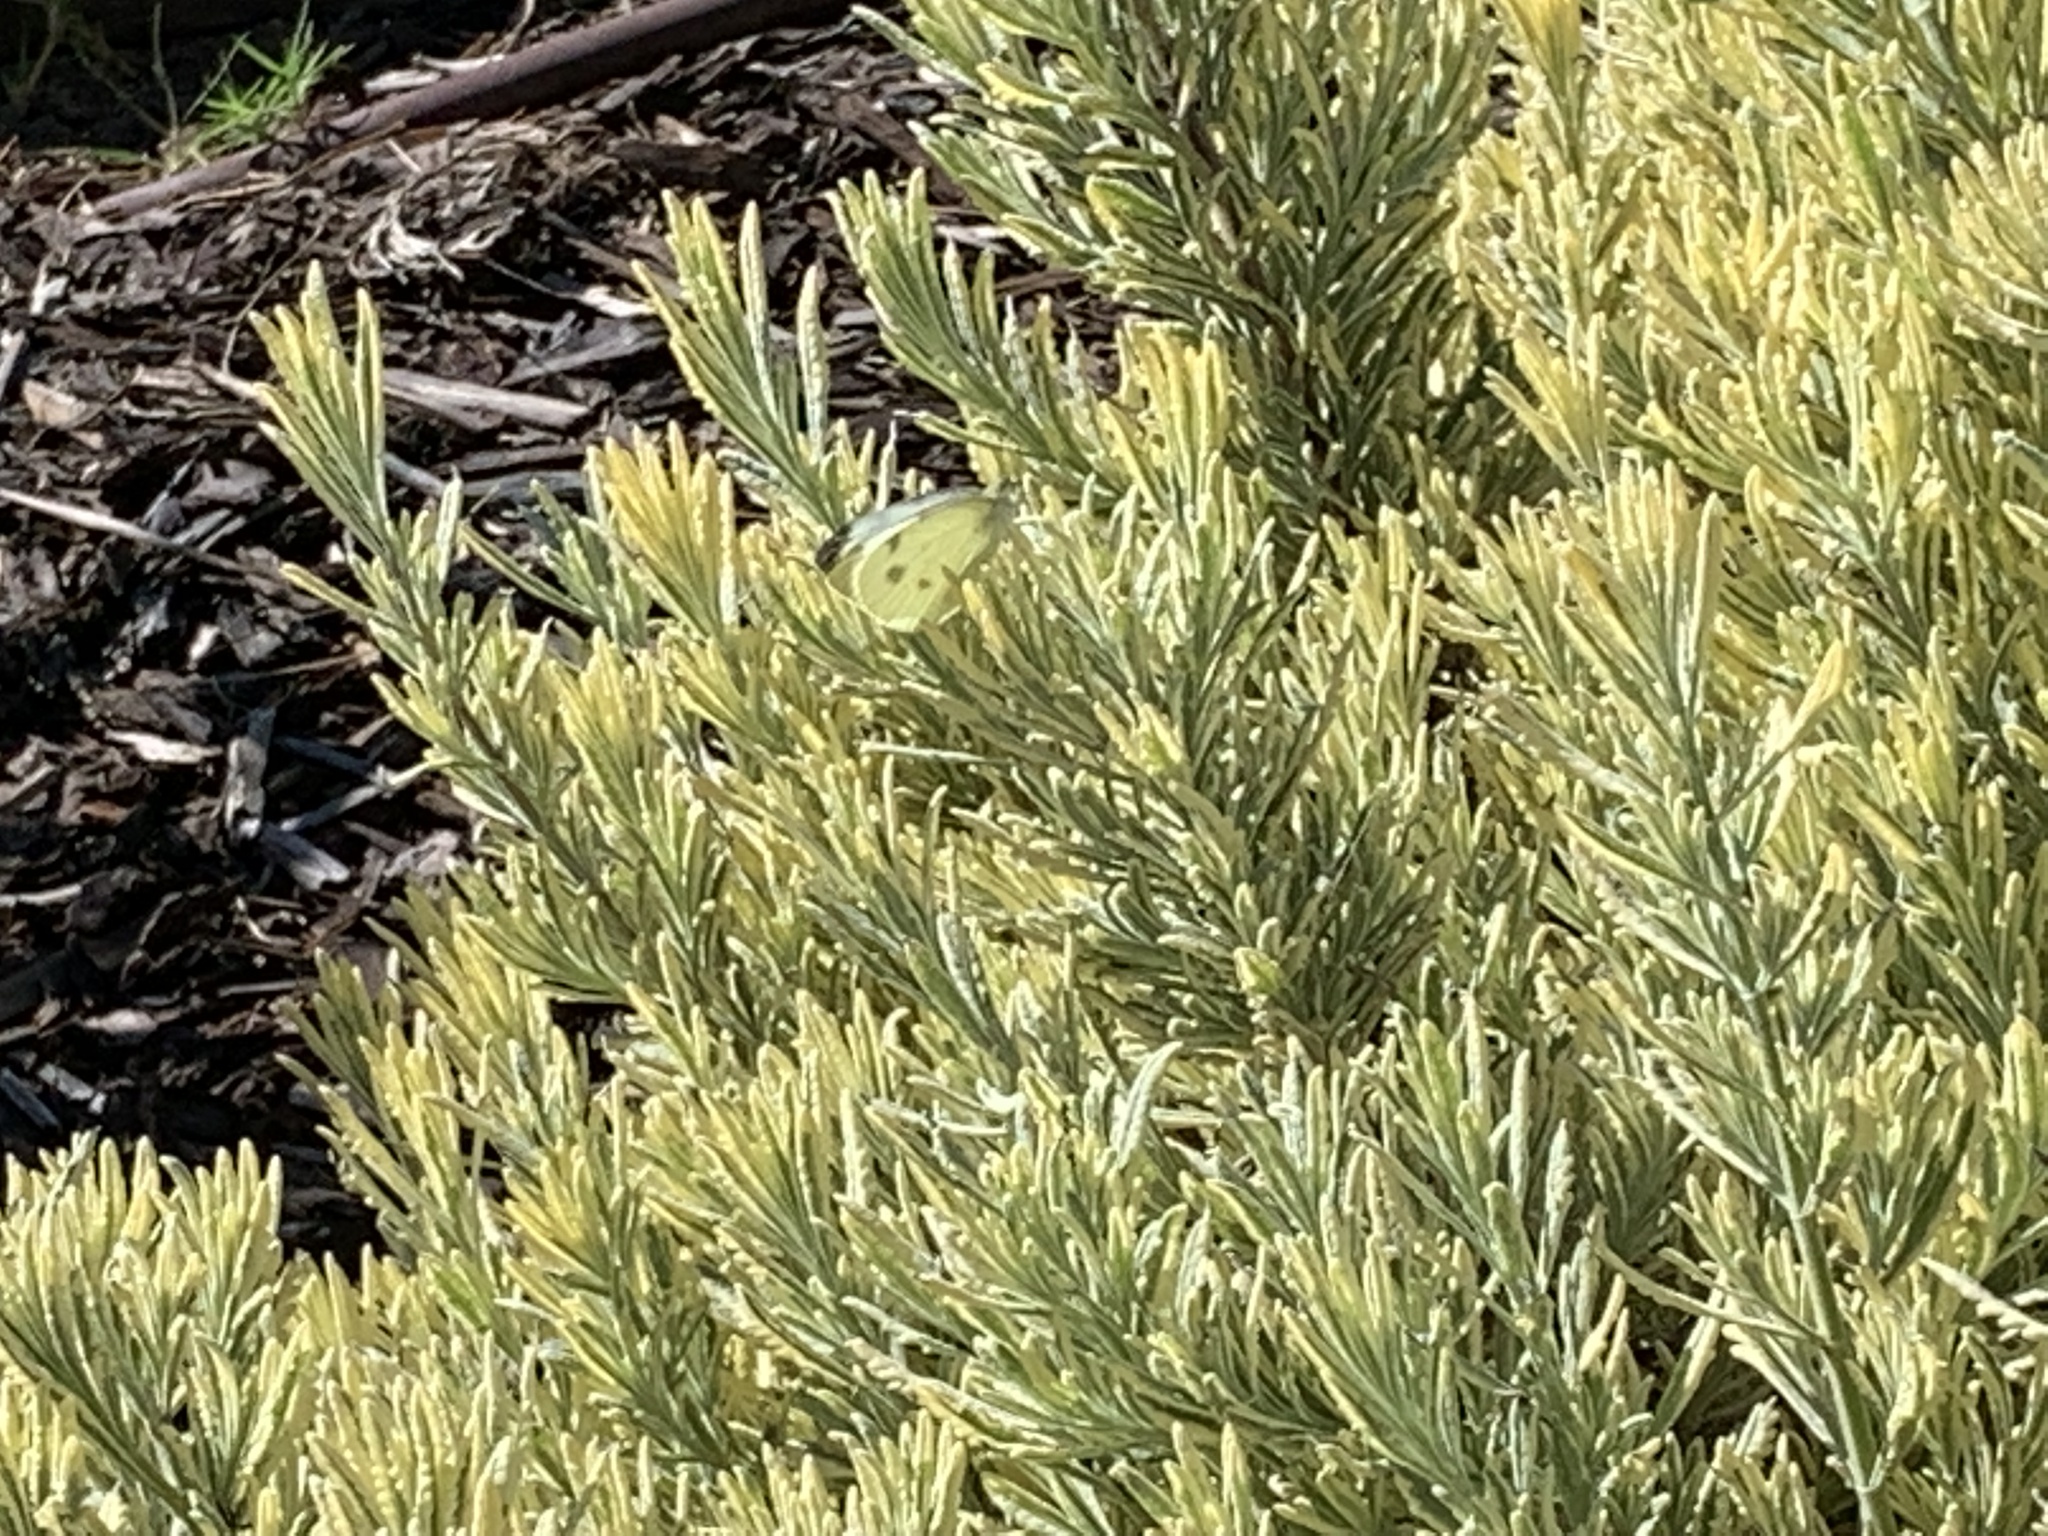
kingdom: Animalia
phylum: Arthropoda
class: Insecta
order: Lepidoptera
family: Pieridae
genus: Pieris
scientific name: Pieris rapae
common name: Small white
